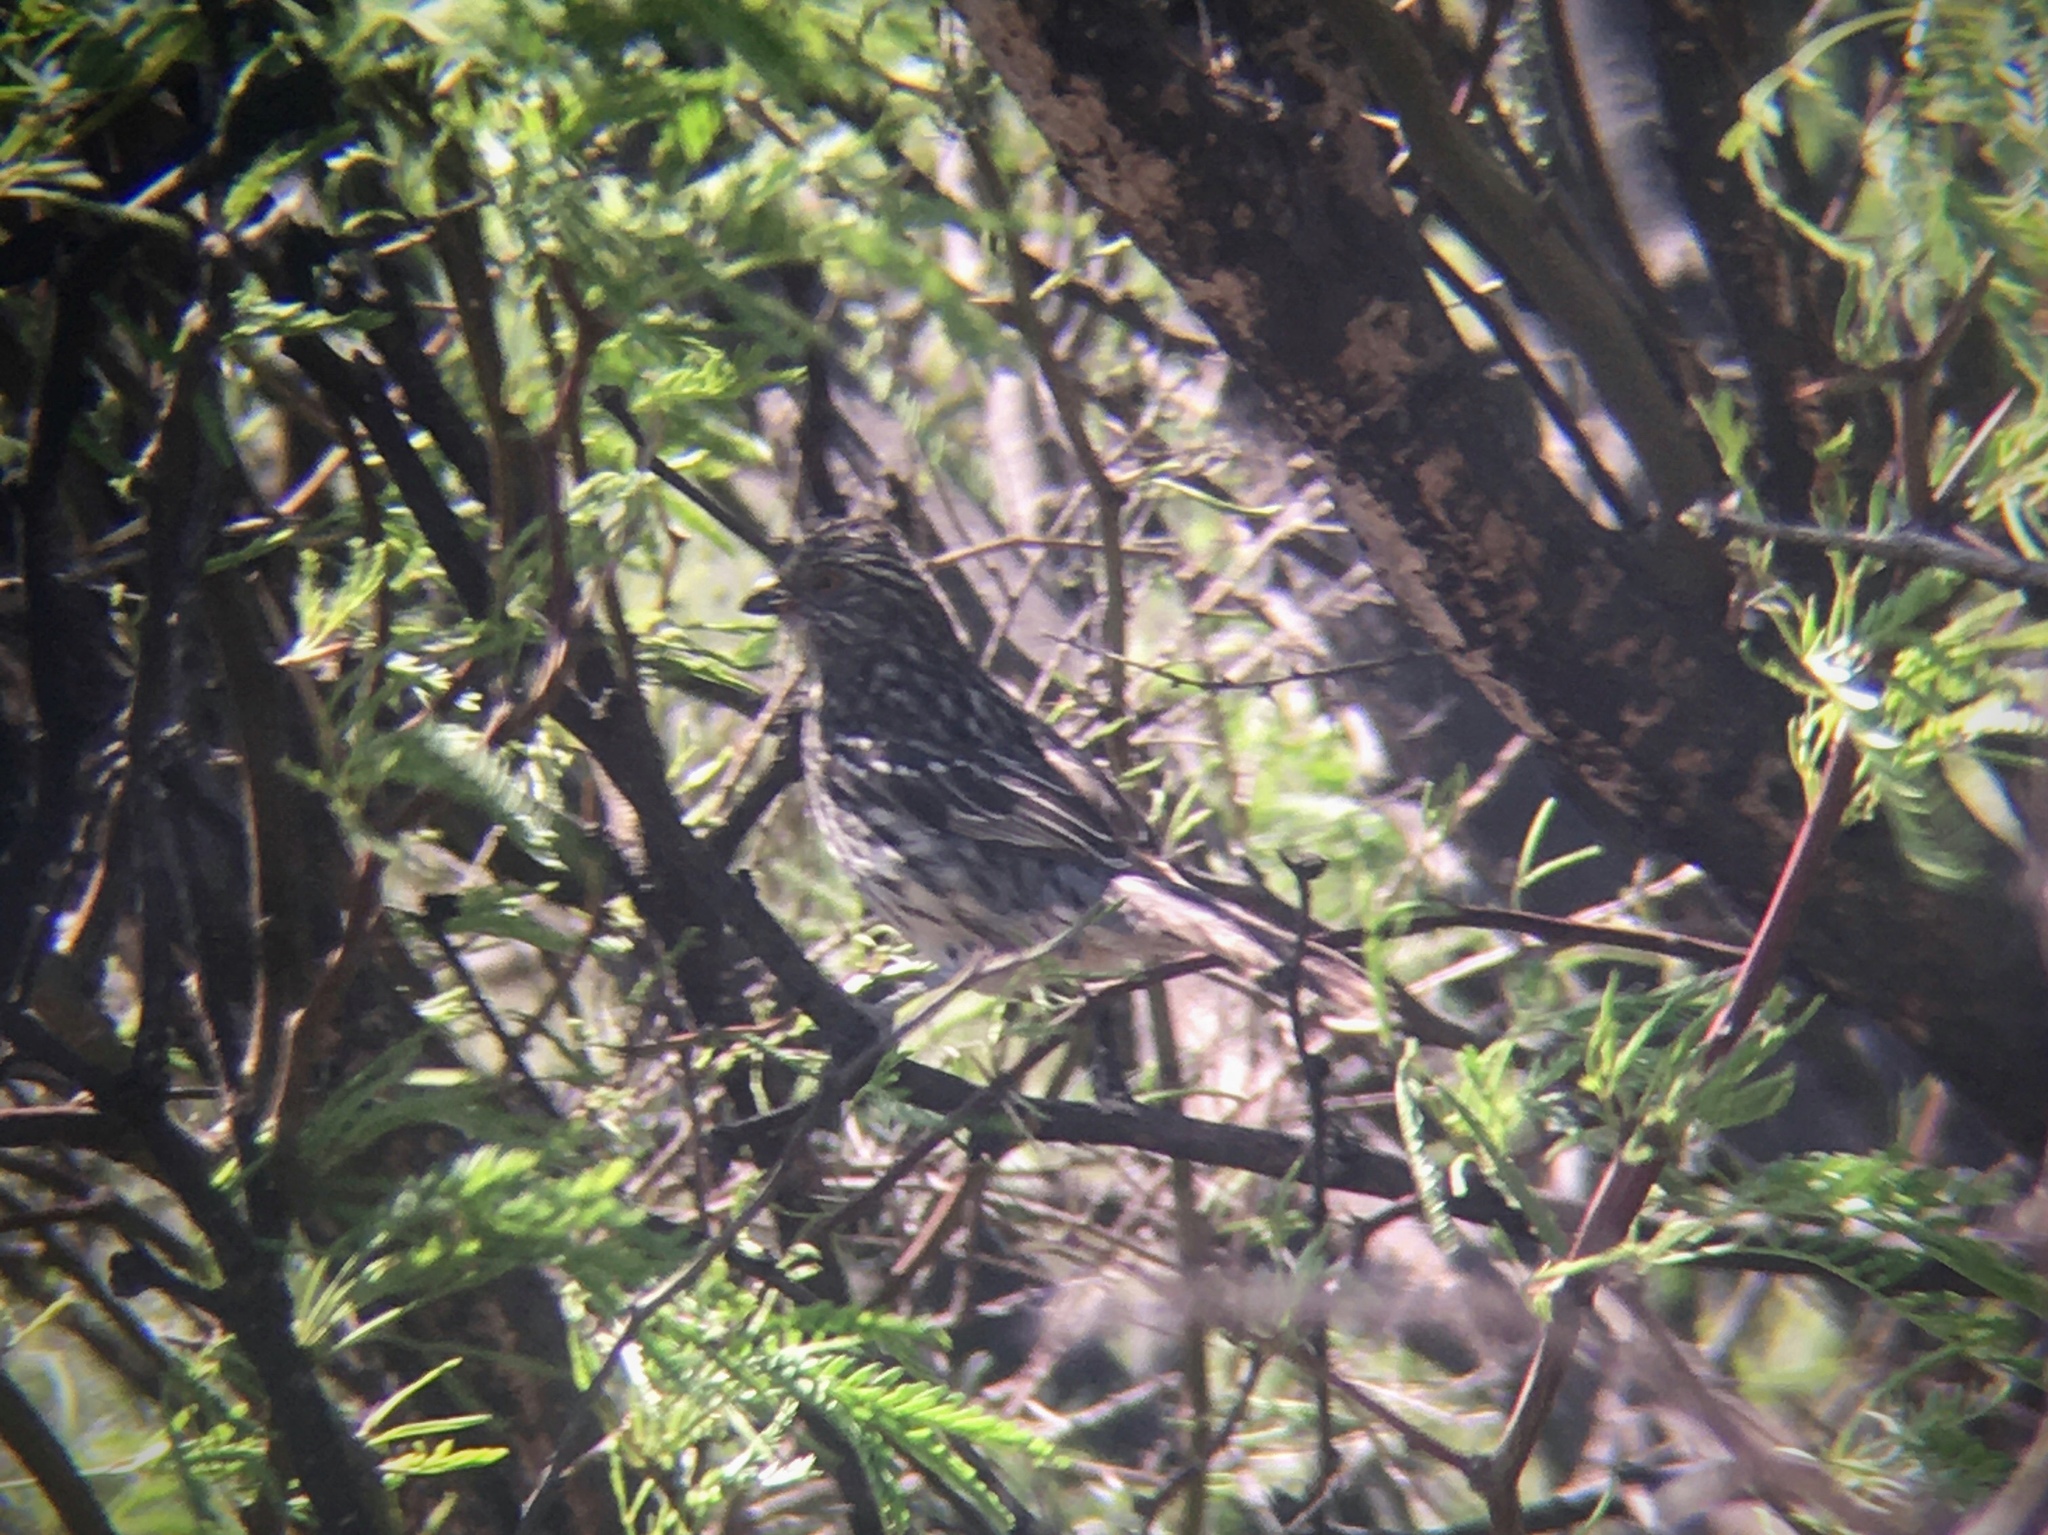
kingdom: Animalia
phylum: Chordata
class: Aves
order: Passeriformes
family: Cotingidae
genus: Phytotoma
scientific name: Phytotoma rutila
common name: White-tipped plantcutter
